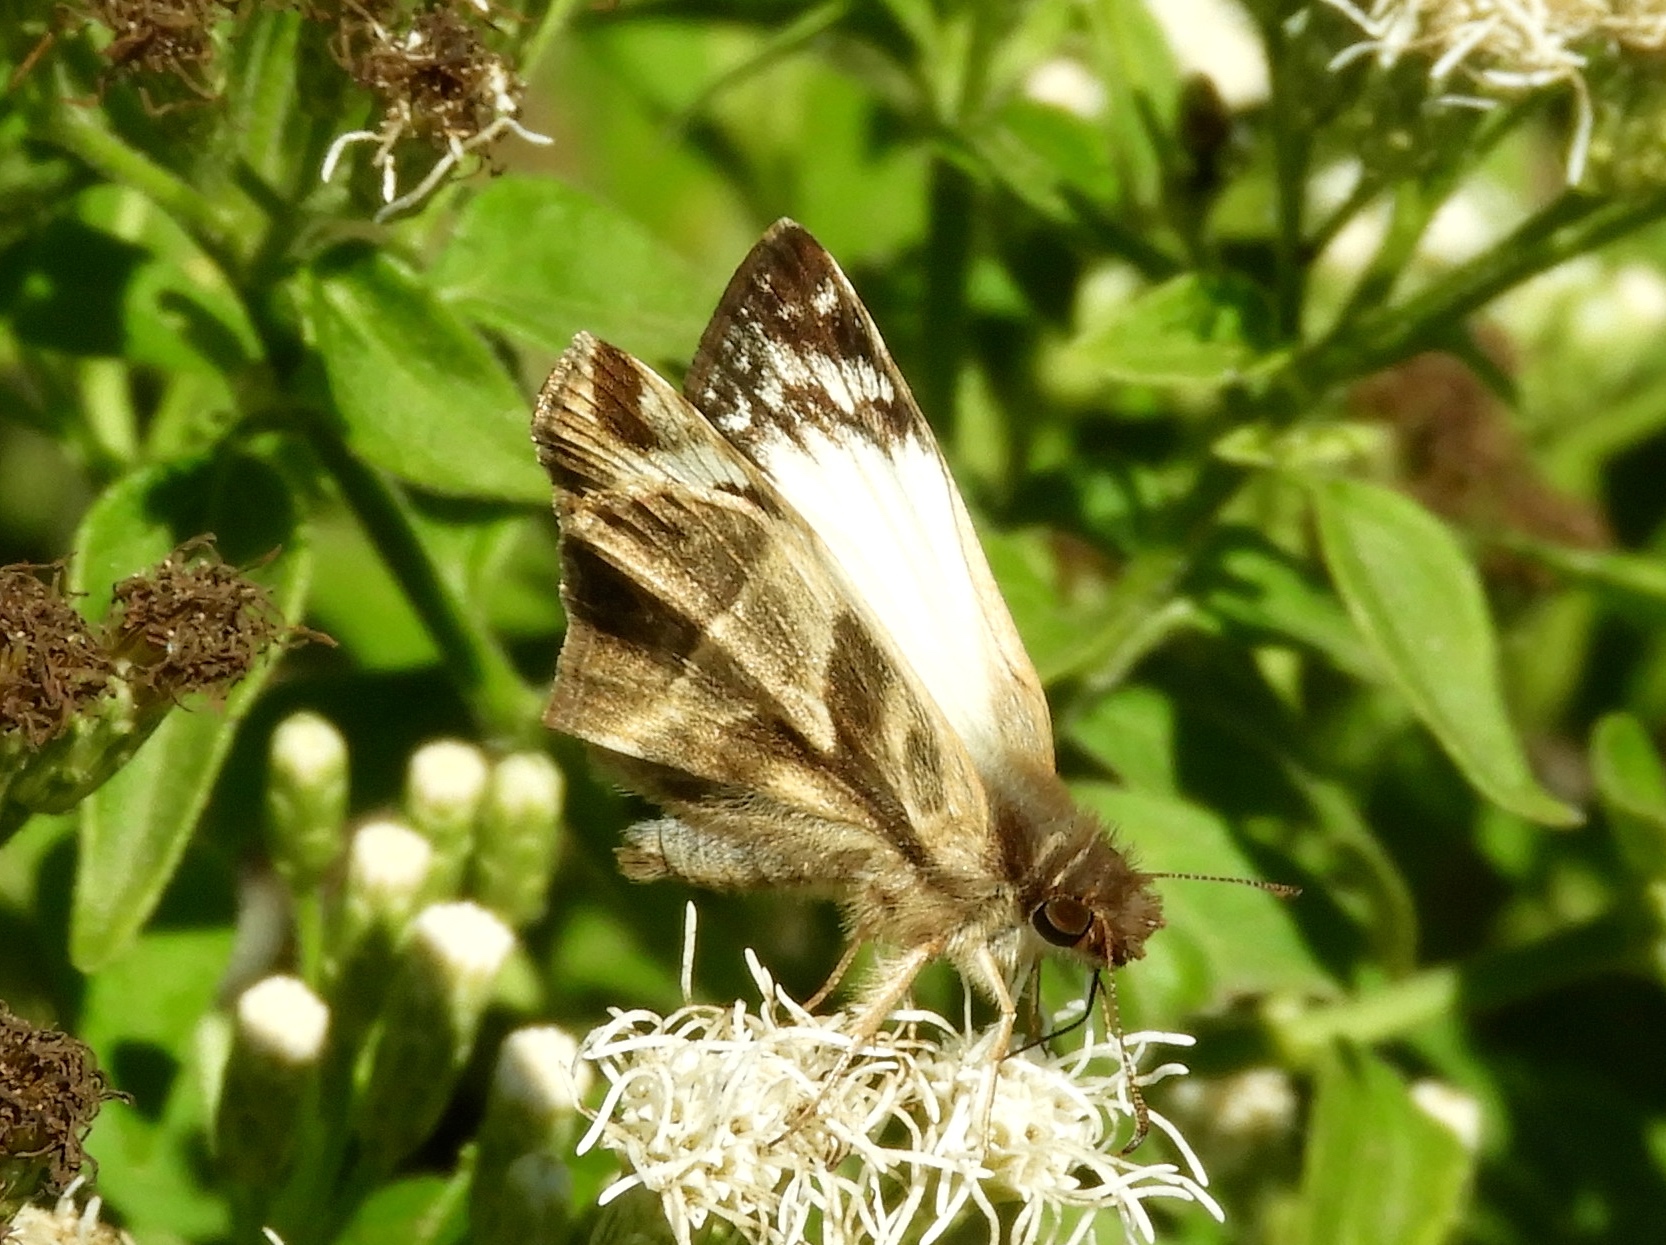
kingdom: Animalia
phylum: Arthropoda
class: Insecta
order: Lepidoptera
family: Hesperiidae
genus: Heliopetes
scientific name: Heliopetes laviana
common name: Laviana white-skipper
